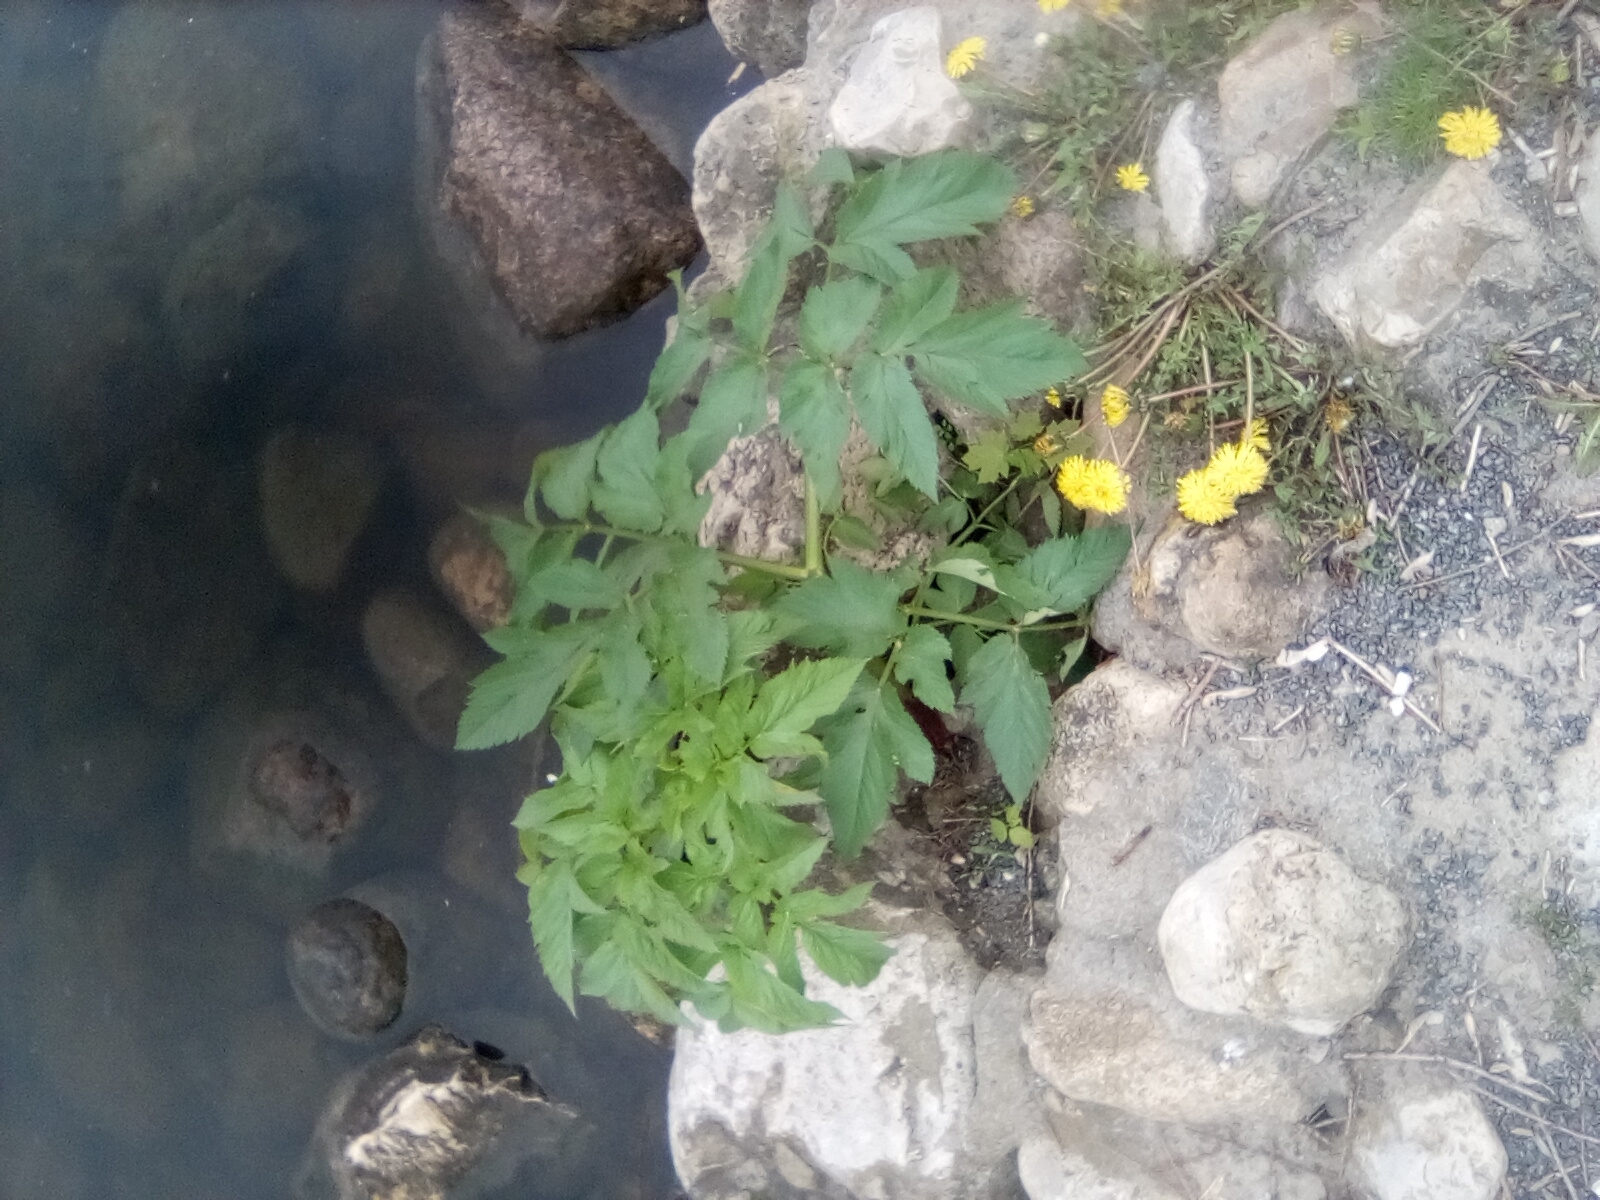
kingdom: Plantae
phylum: Tracheophyta
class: Magnoliopsida
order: Apiales
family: Apiaceae
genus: Angelica
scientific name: Angelica archangelica
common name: Garden angelica
